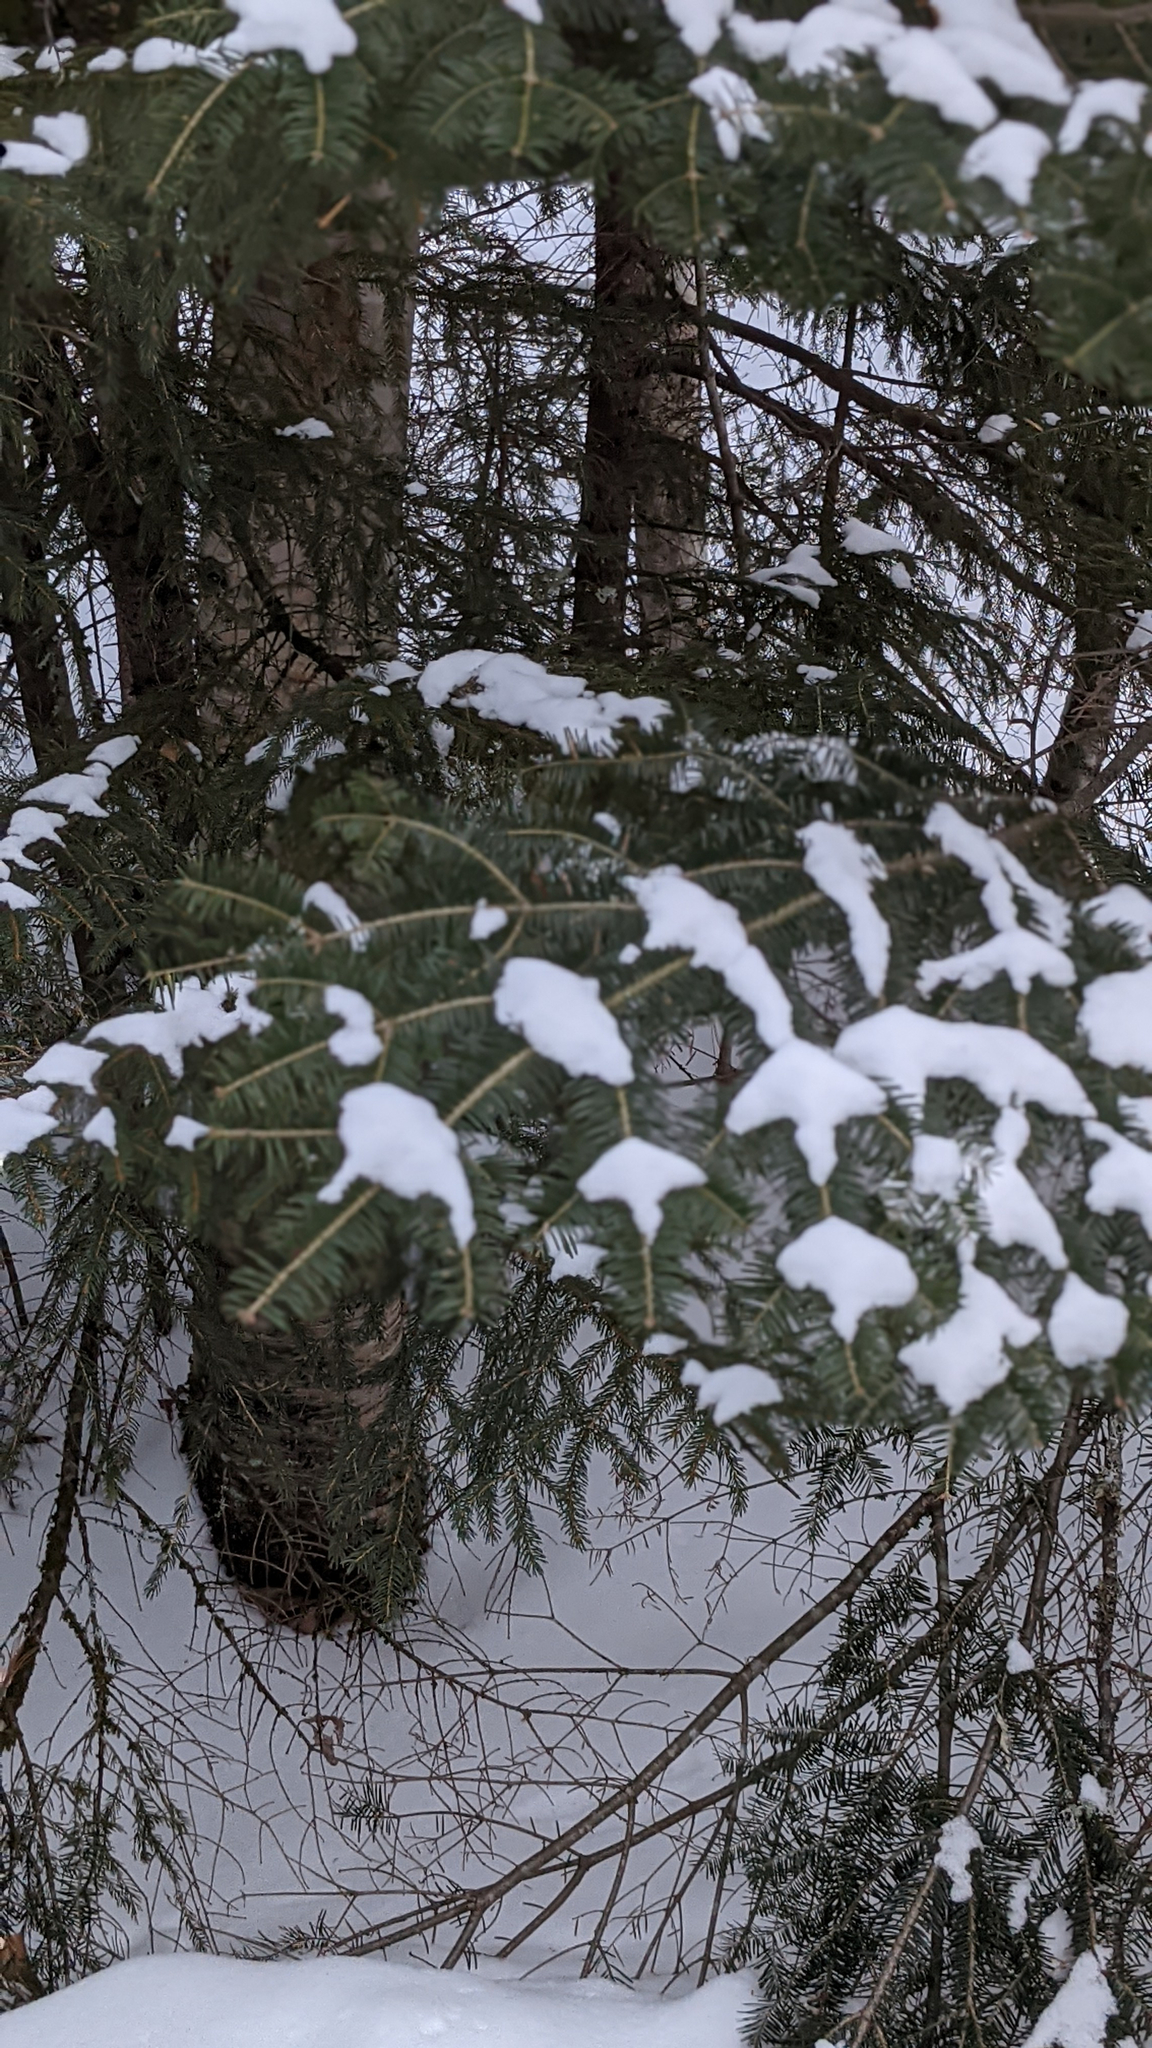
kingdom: Plantae
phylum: Tracheophyta
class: Pinopsida
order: Pinales
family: Pinaceae
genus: Abies
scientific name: Abies balsamea
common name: Balsam fir
